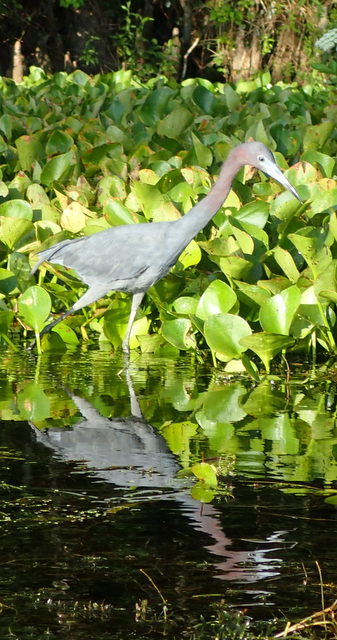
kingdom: Animalia
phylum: Chordata
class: Aves
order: Pelecaniformes
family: Ardeidae
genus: Egretta
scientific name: Egretta caerulea
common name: Little blue heron
